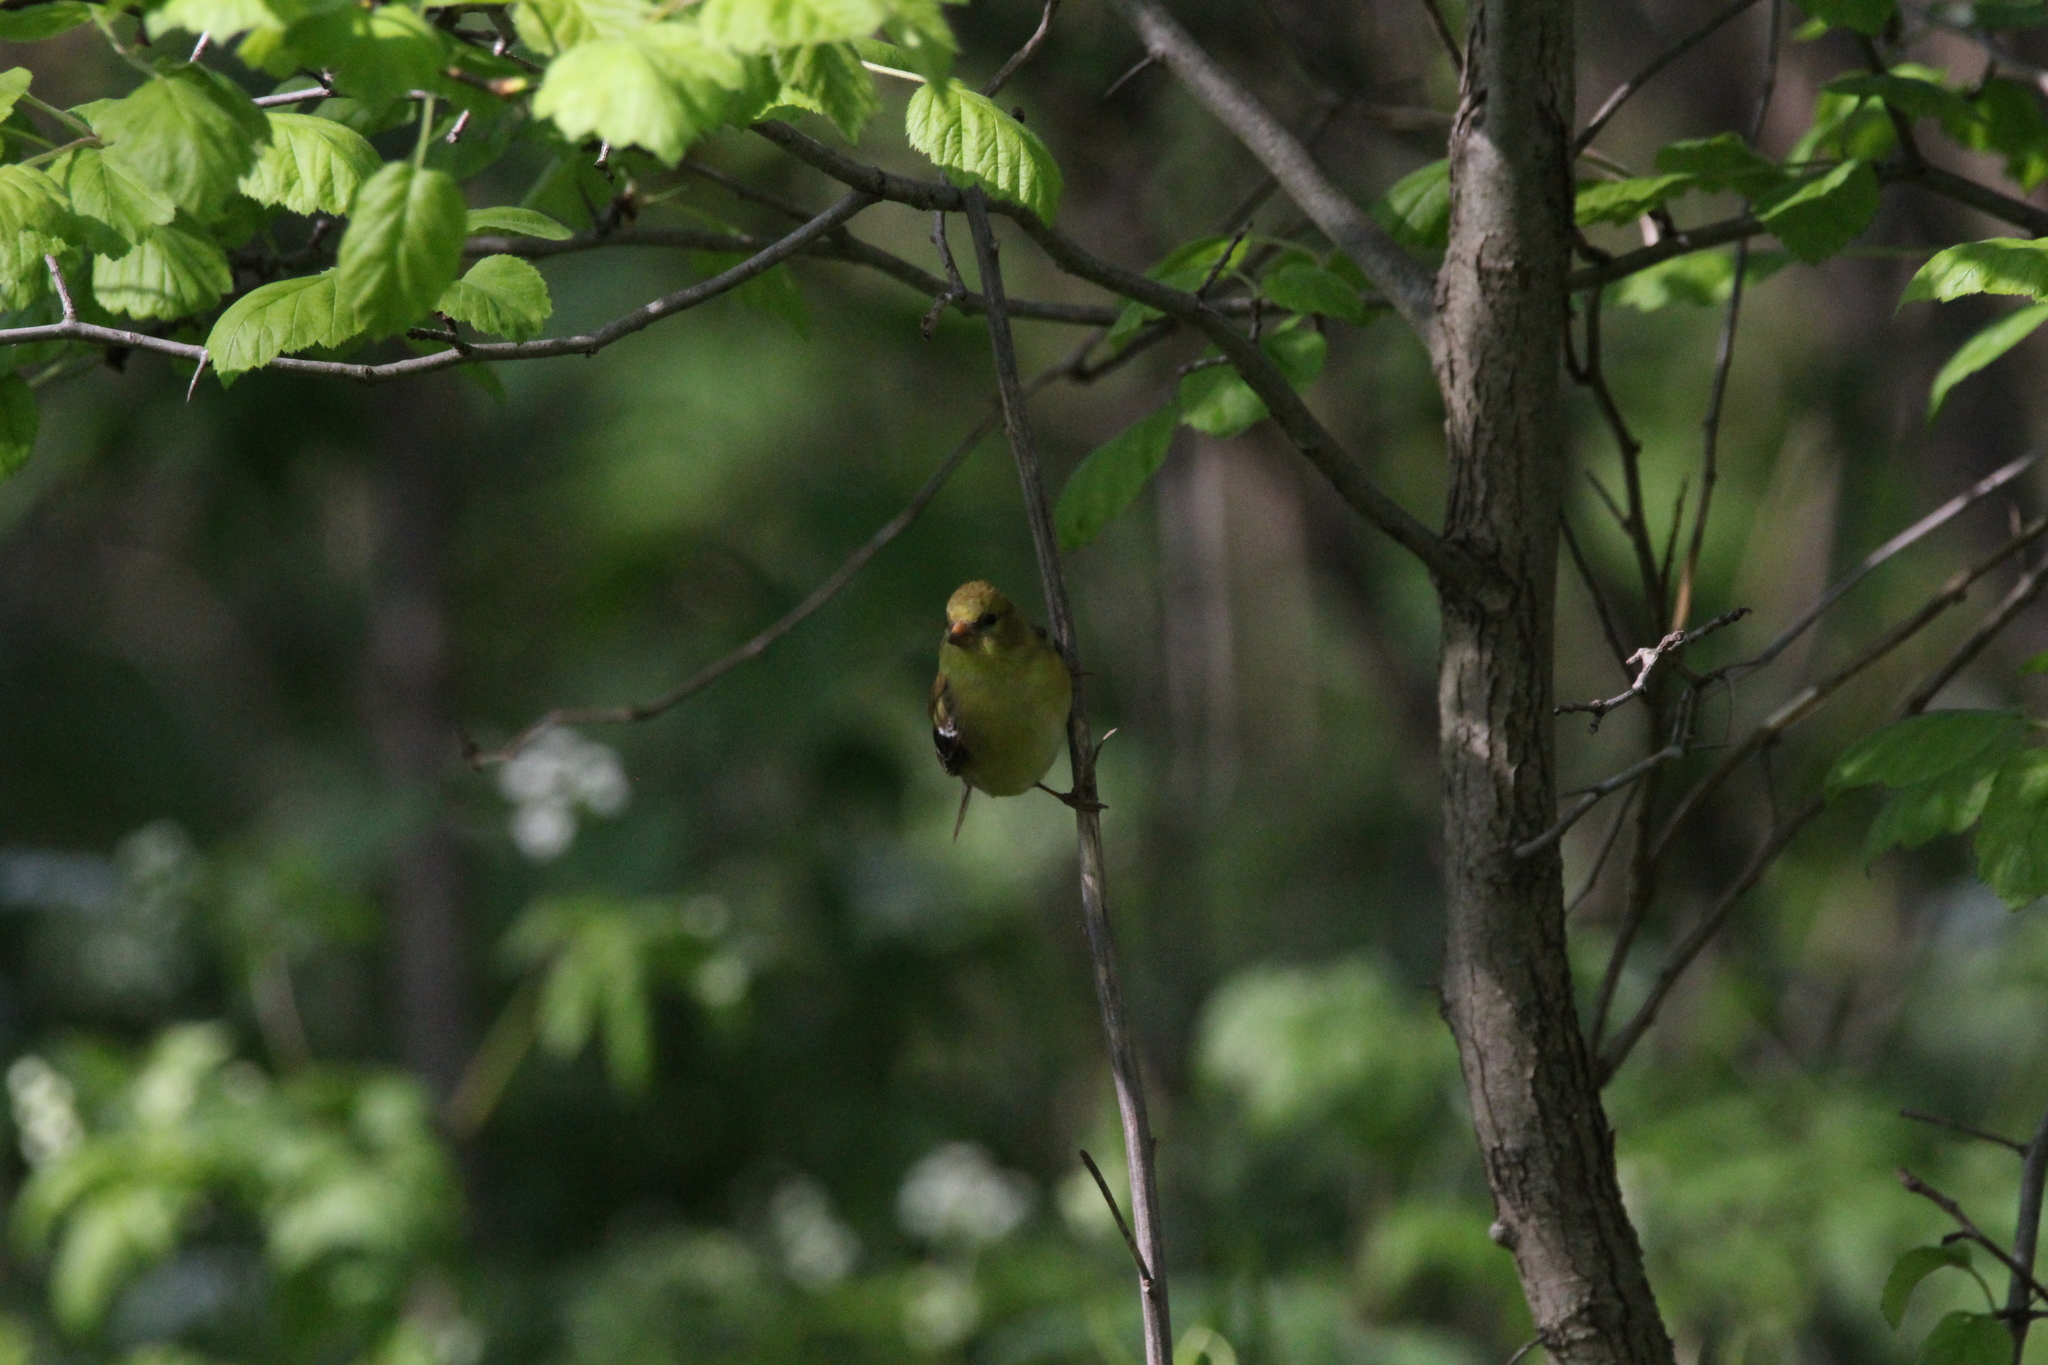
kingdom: Animalia
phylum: Chordata
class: Aves
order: Passeriformes
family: Fringillidae
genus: Spinus
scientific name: Spinus tristis
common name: American goldfinch
